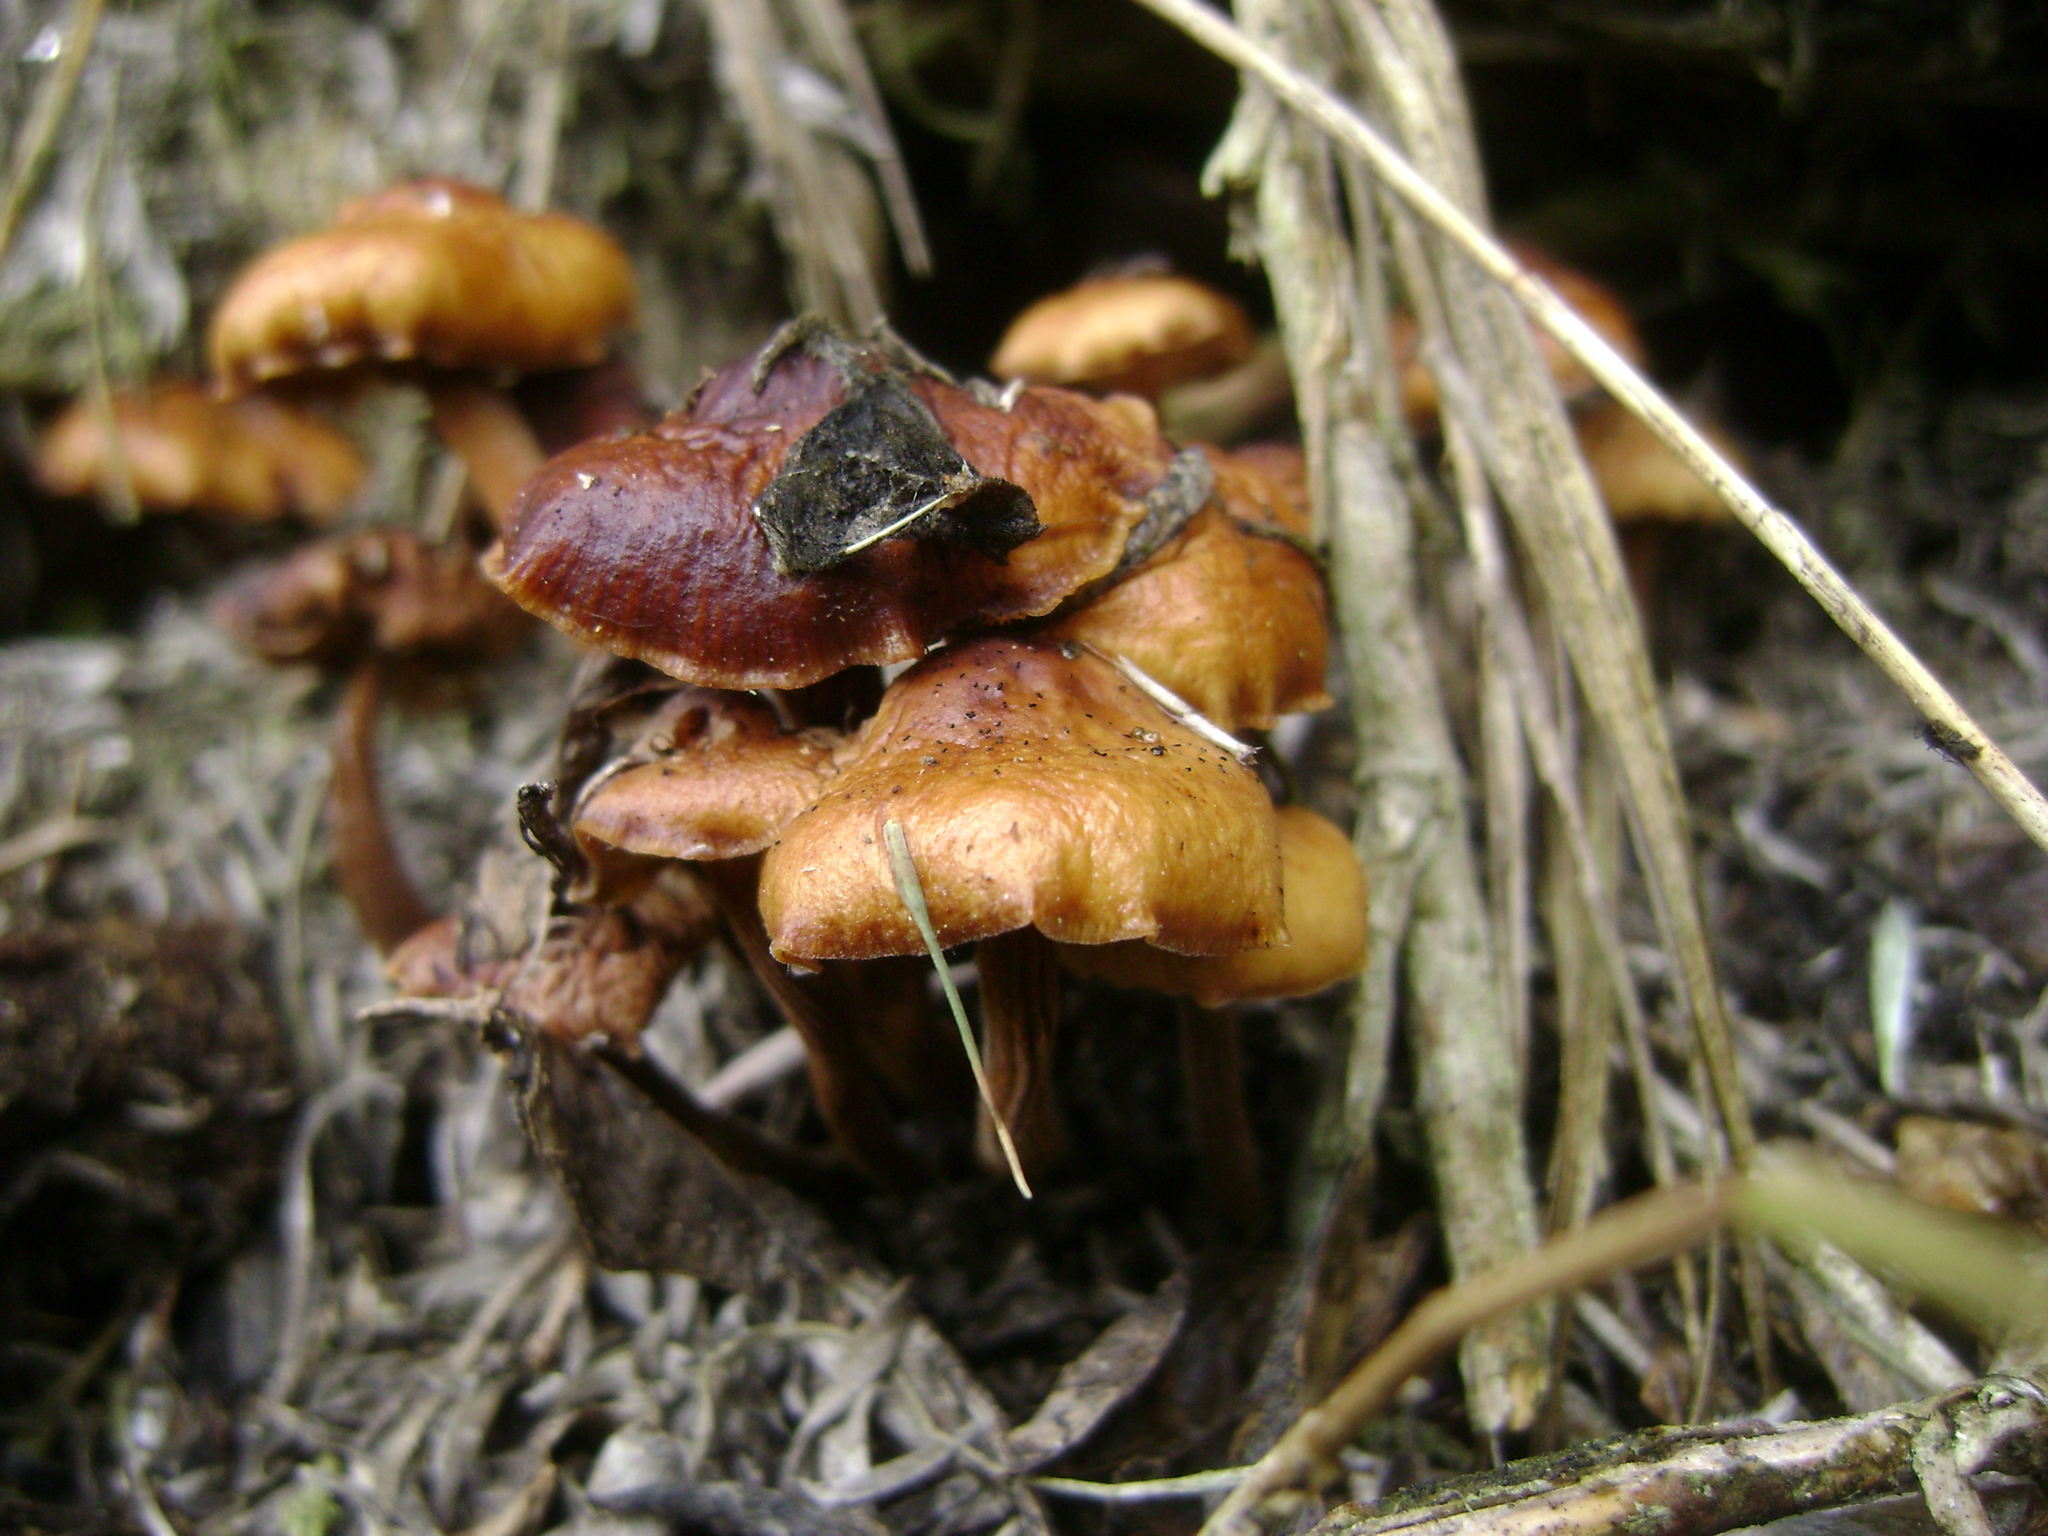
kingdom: Fungi
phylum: Basidiomycota
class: Agaricomycetes
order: Agaricales
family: Physalacriaceae
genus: Flammulina
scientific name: Flammulina velutipes
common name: Velvet shank
